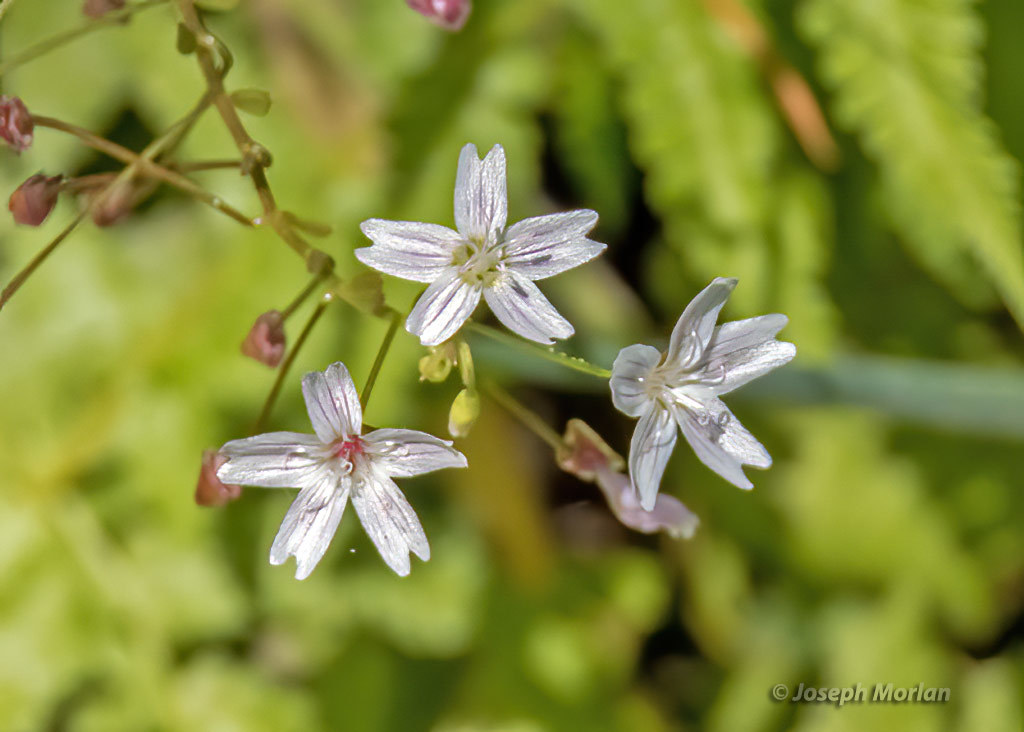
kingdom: Plantae
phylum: Tracheophyta
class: Magnoliopsida
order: Caryophyllales
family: Montiaceae
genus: Claytonia
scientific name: Claytonia sibirica
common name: Pink purslane
